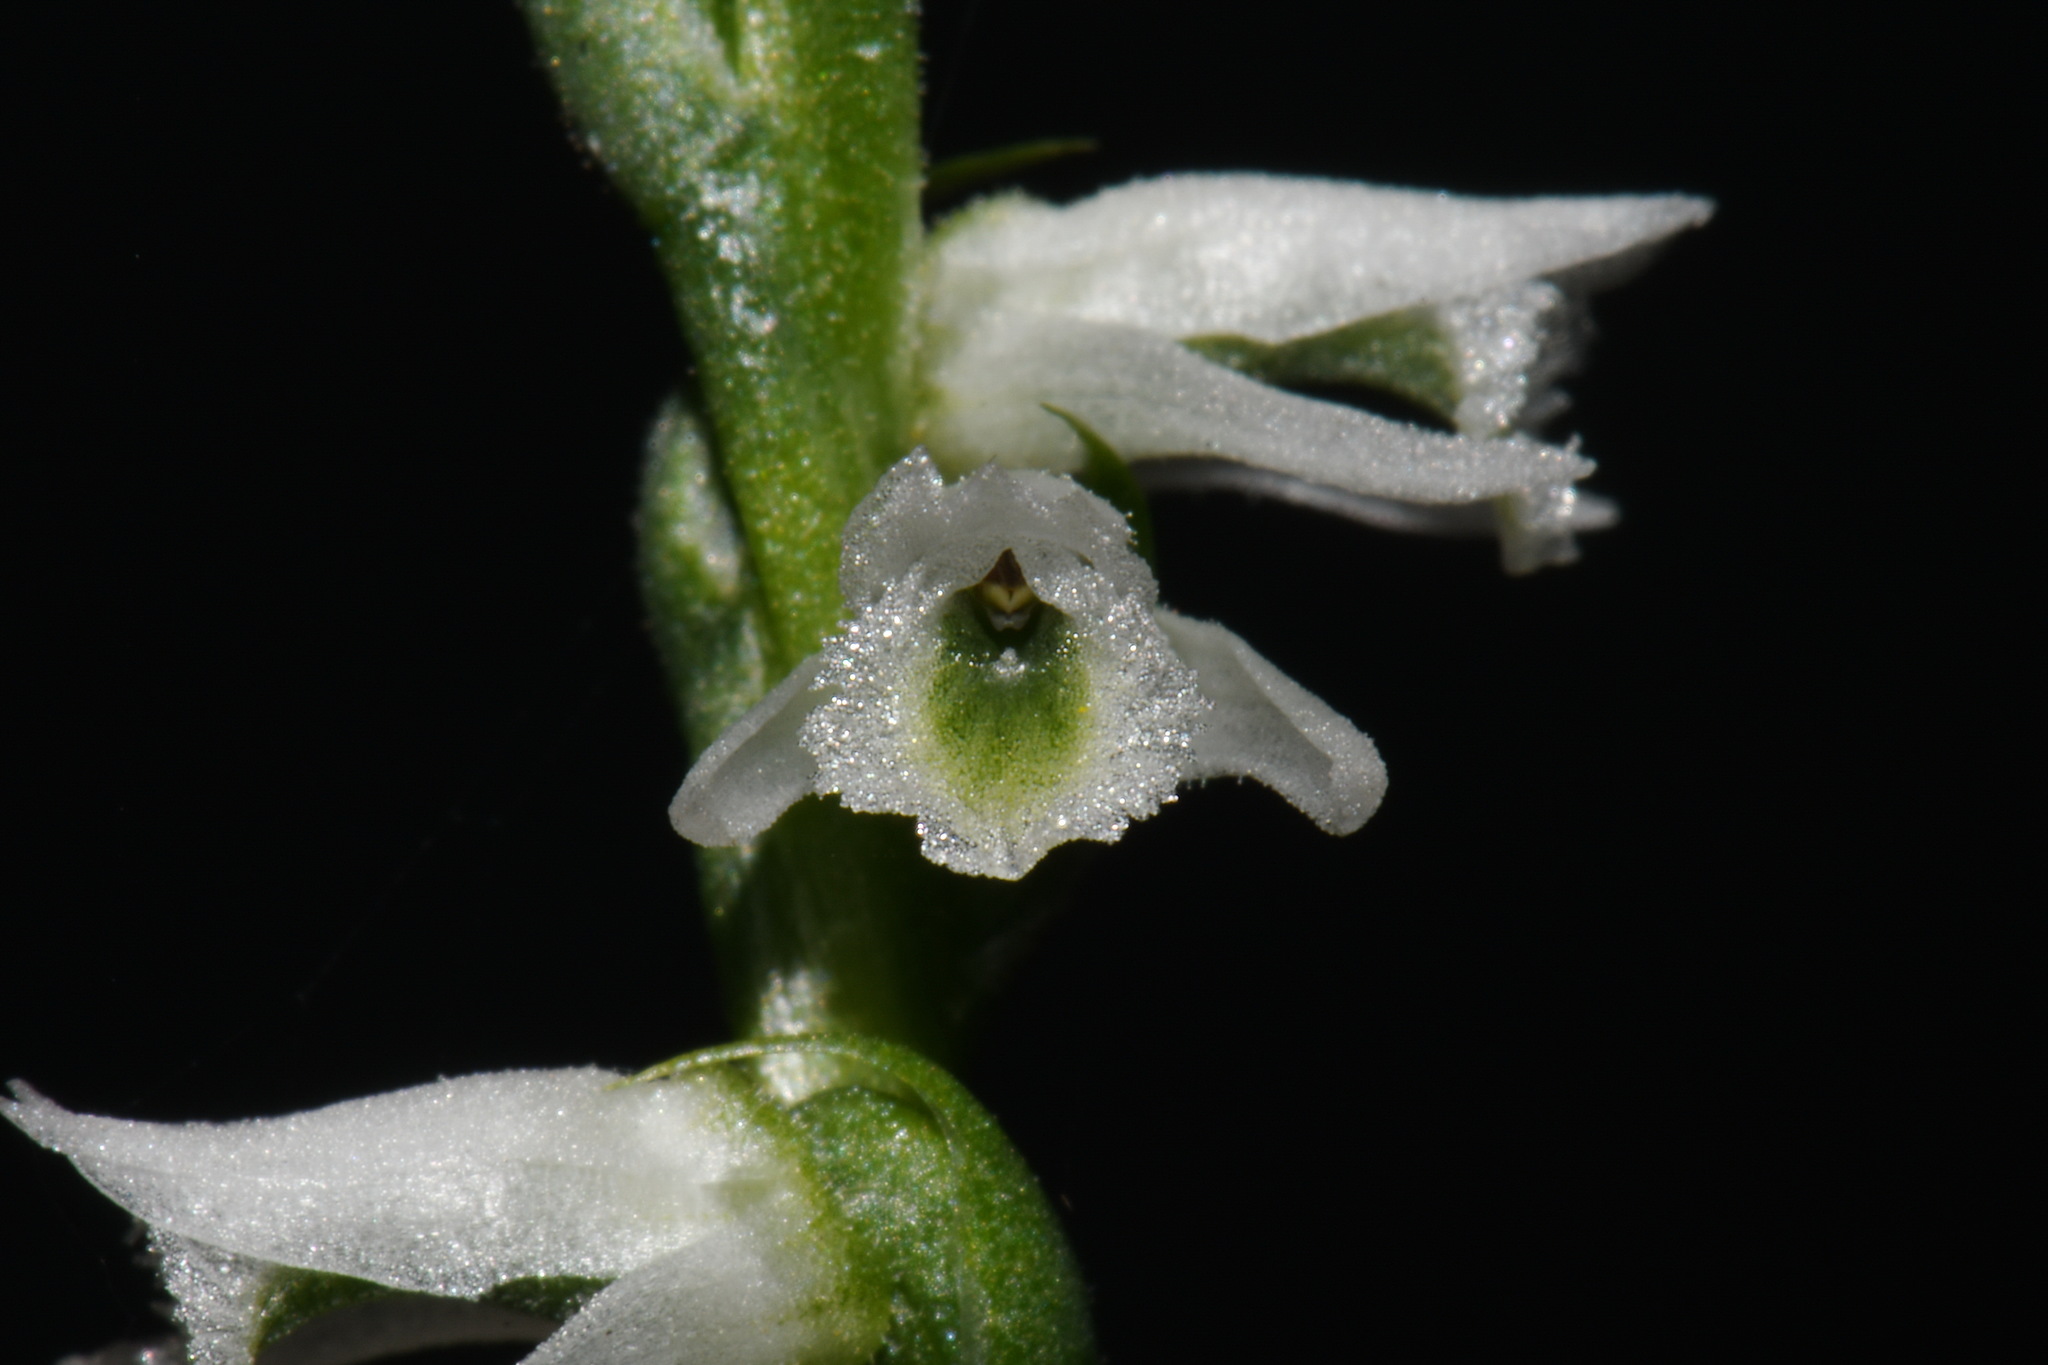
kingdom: Plantae
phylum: Tracheophyta
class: Liliopsida
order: Asparagales
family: Orchidaceae
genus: Spiranthes
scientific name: Spiranthes lacera
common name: Northern slender ladies'-tresses
